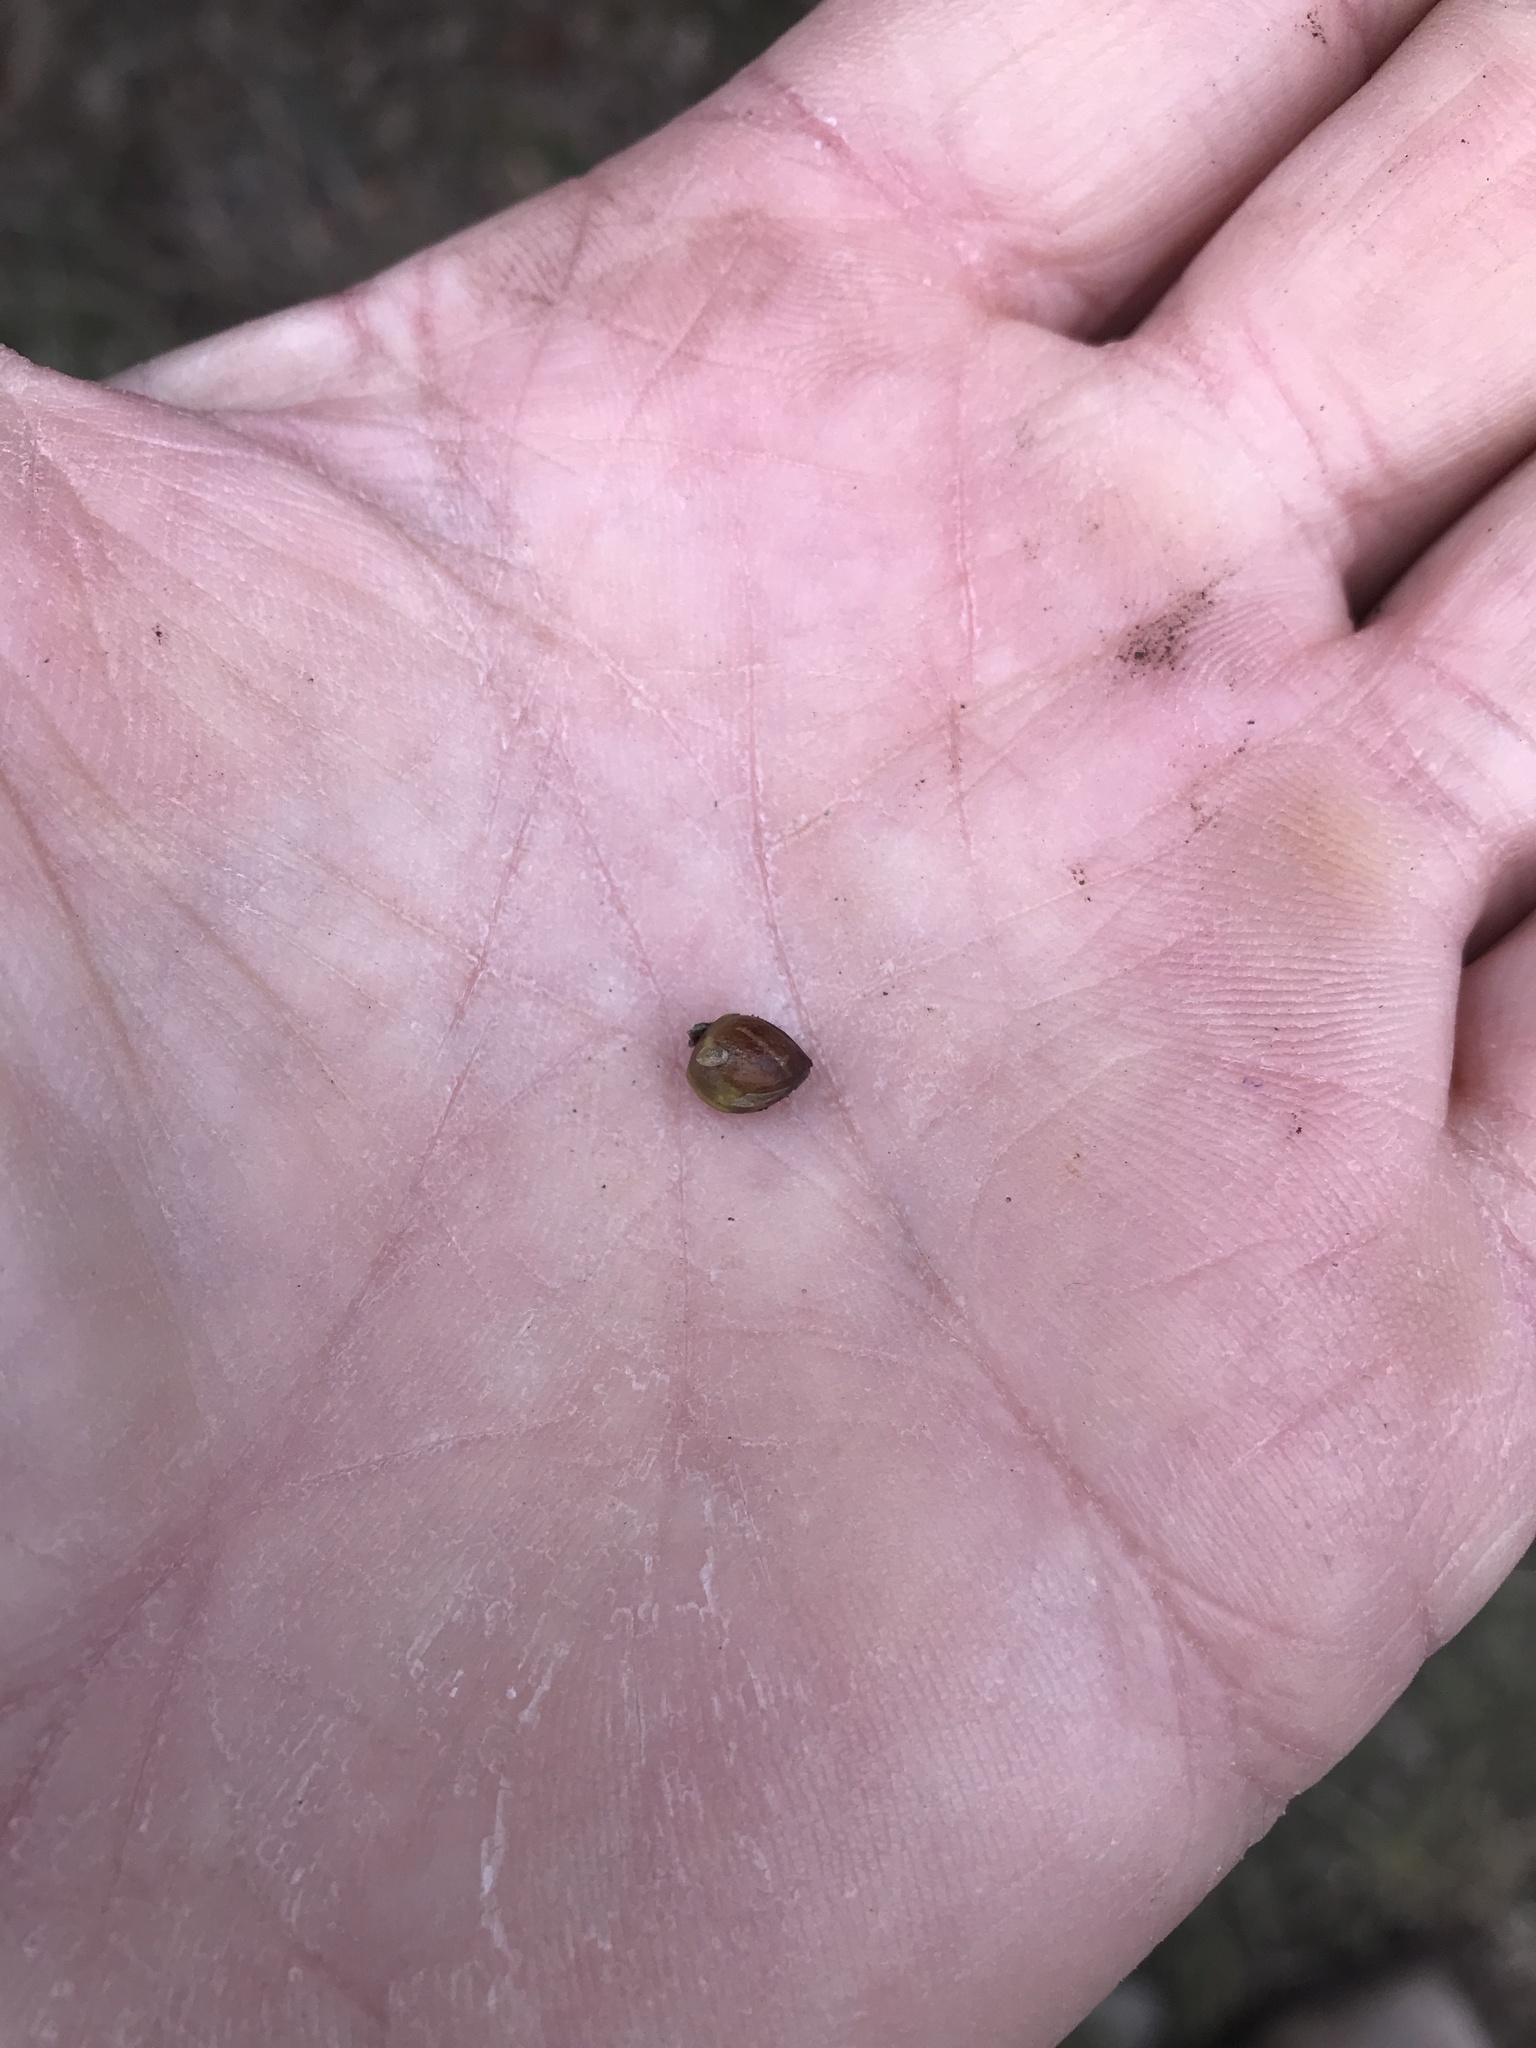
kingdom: Plantae
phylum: Tracheophyta
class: Pinopsida
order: Pinales
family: Cupressaceae
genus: Juniperus
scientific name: Juniperus ashei
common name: Mexican juniper
